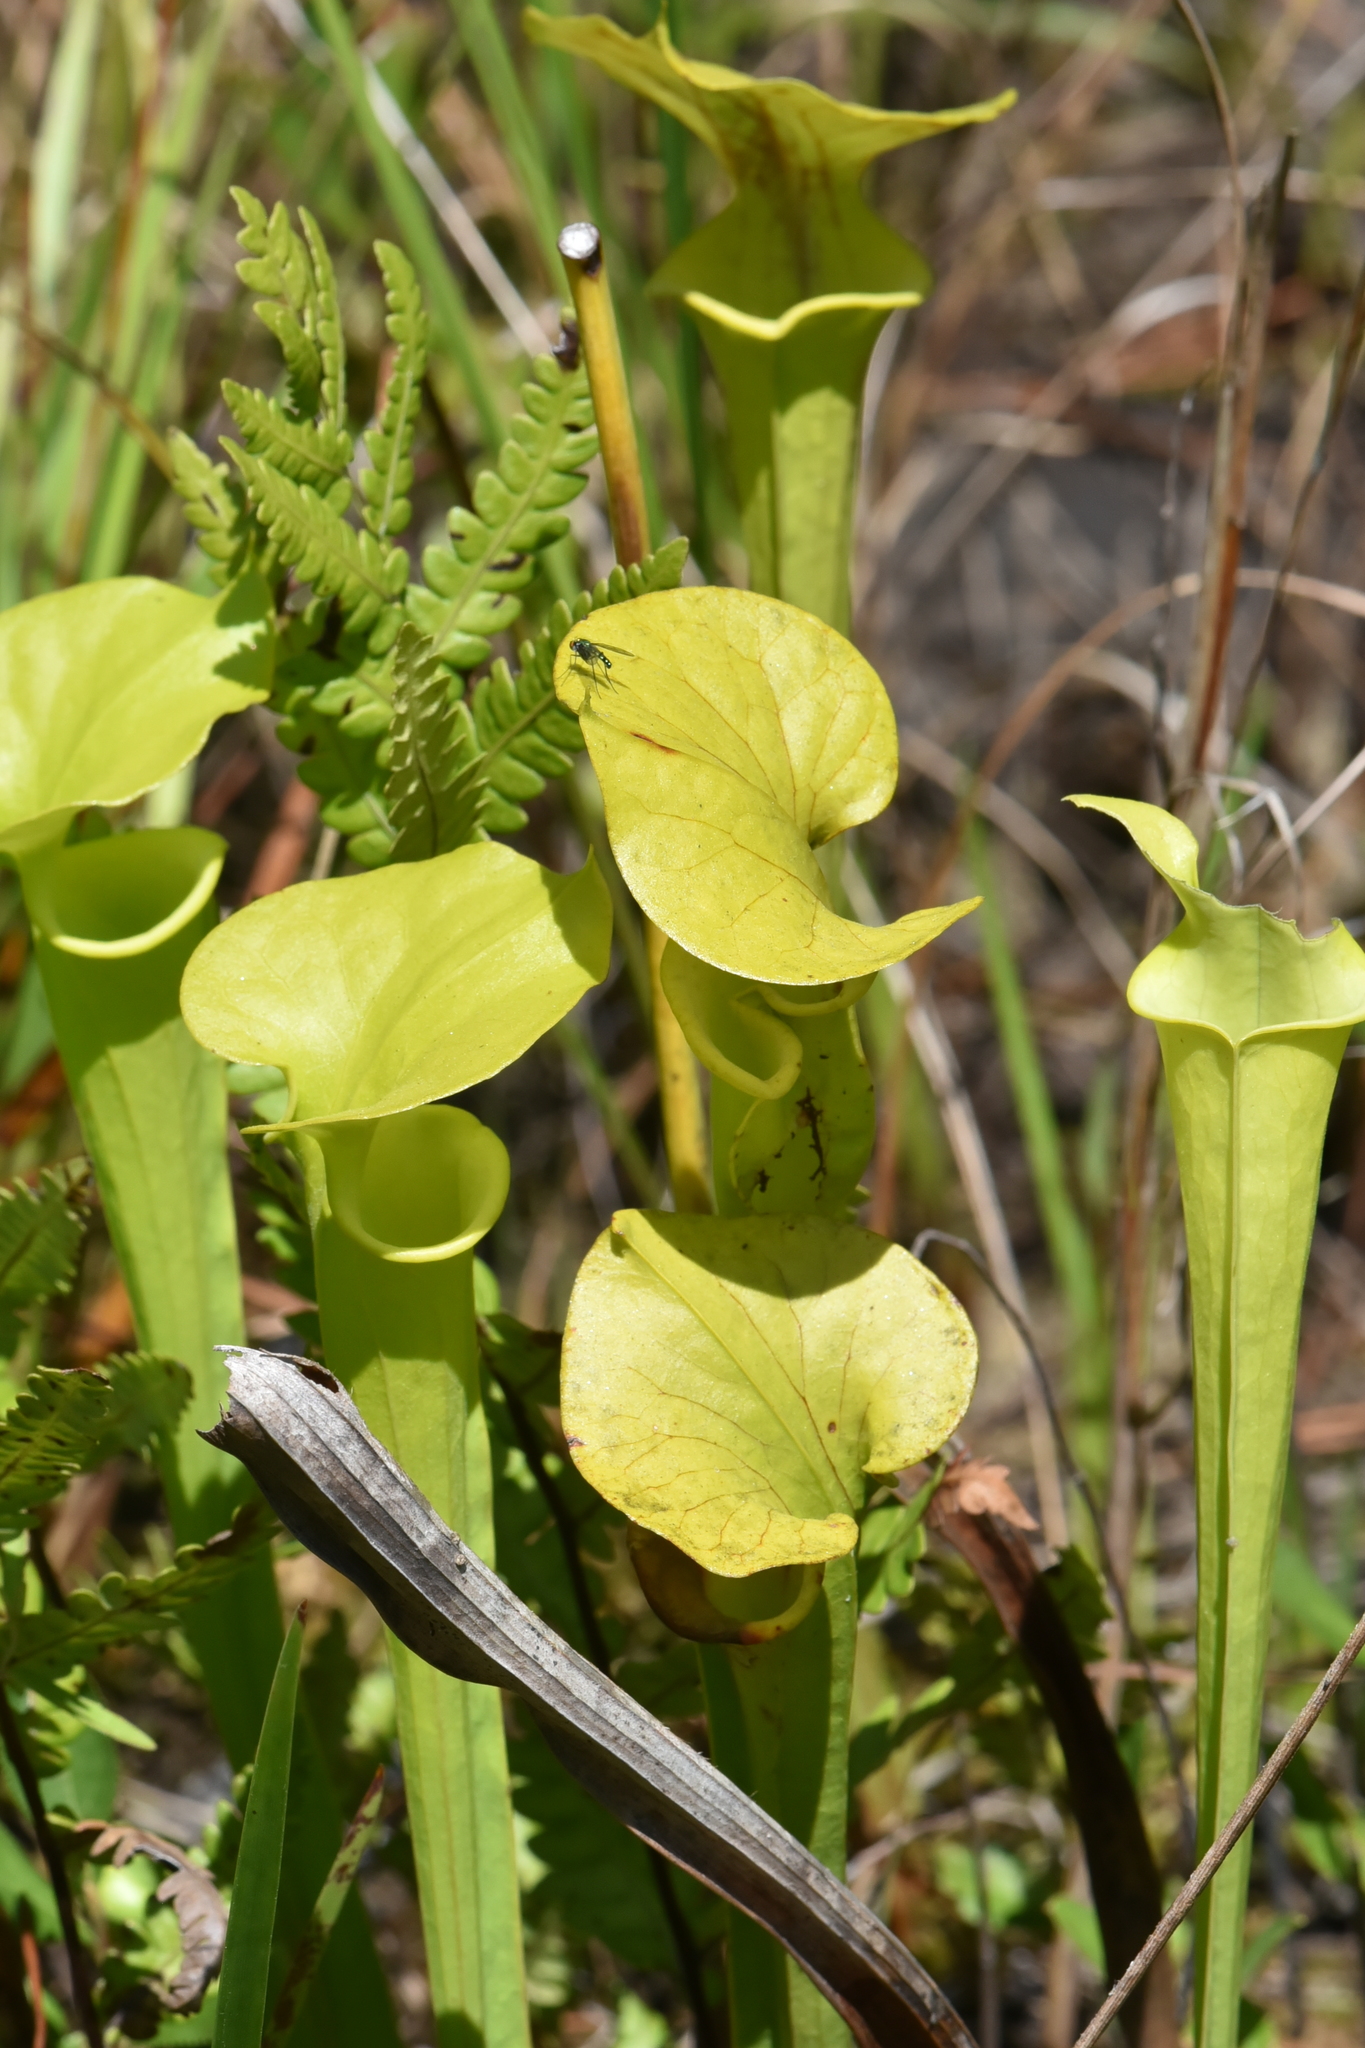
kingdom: Plantae
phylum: Tracheophyta
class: Magnoliopsida
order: Ericales
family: Sarraceniaceae
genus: Sarracenia
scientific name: Sarracenia flava
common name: Trumpets
